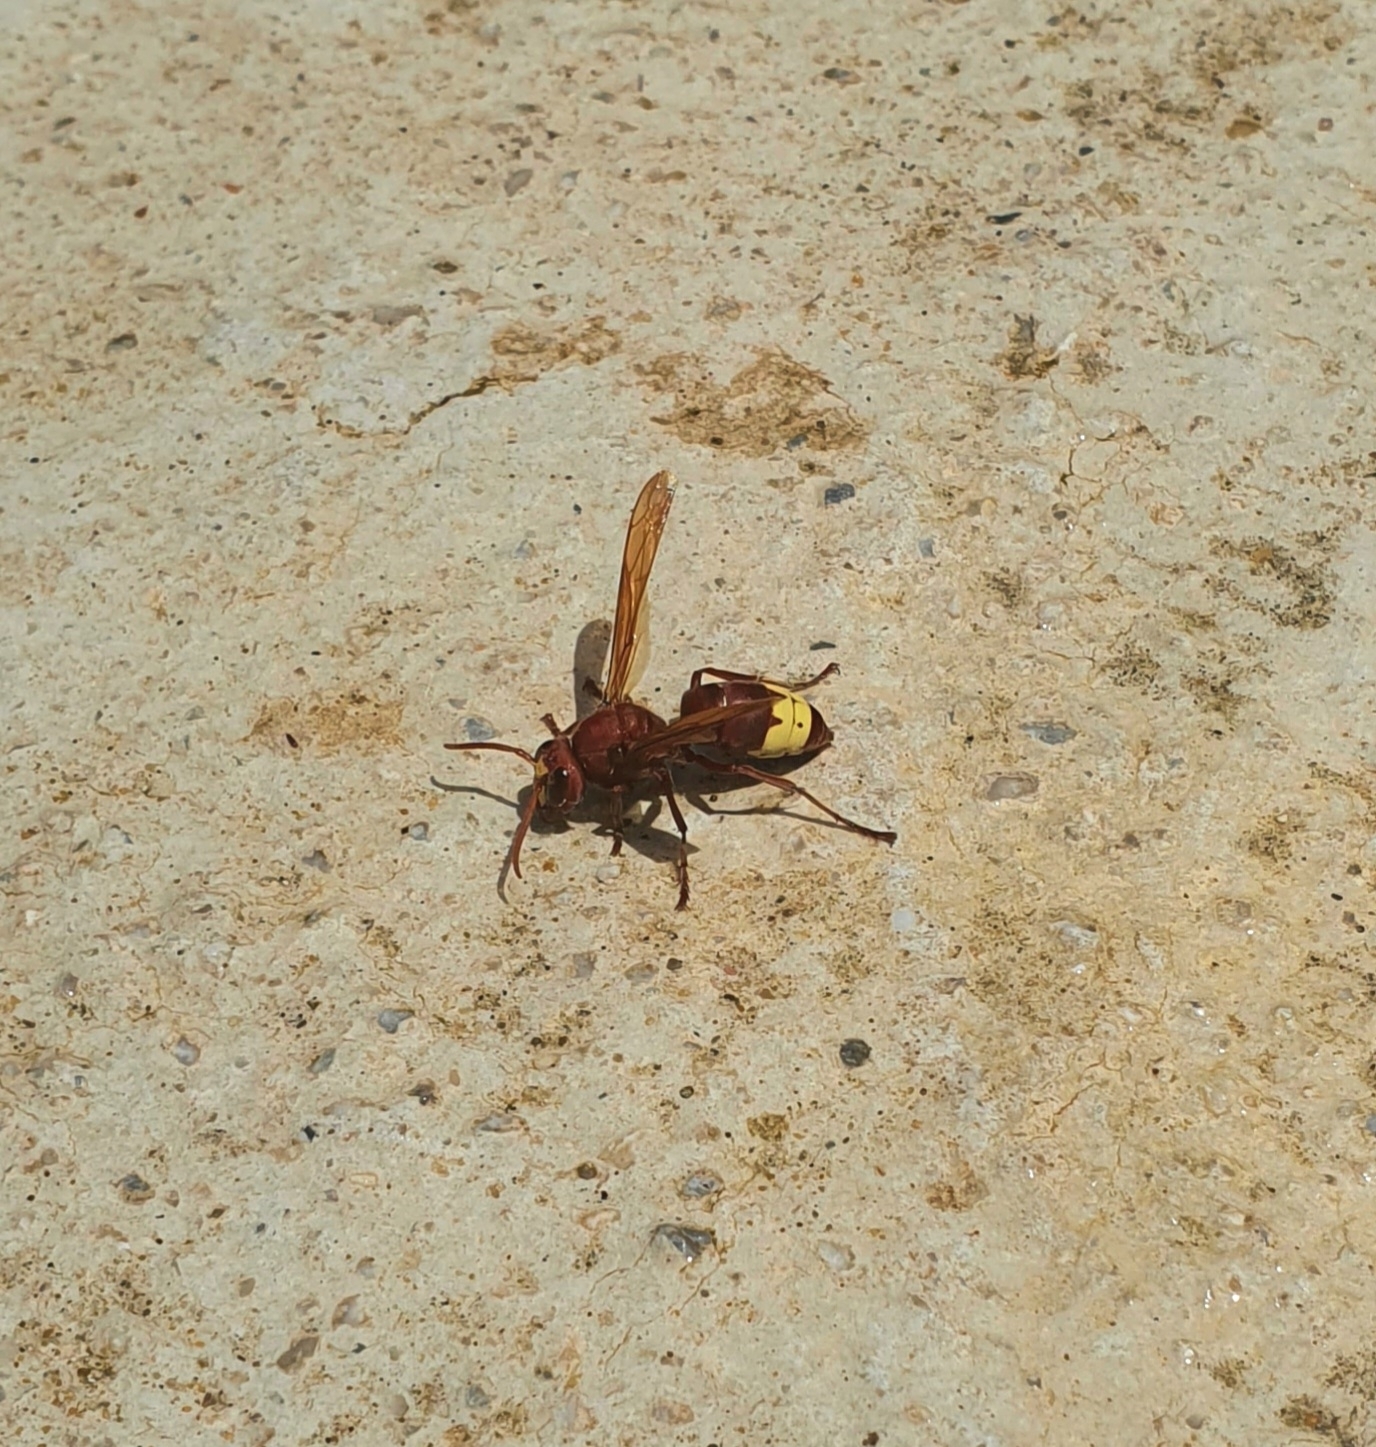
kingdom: Animalia
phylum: Arthropoda
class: Insecta
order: Hymenoptera
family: Vespidae
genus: Vespa
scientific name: Vespa orientalis
